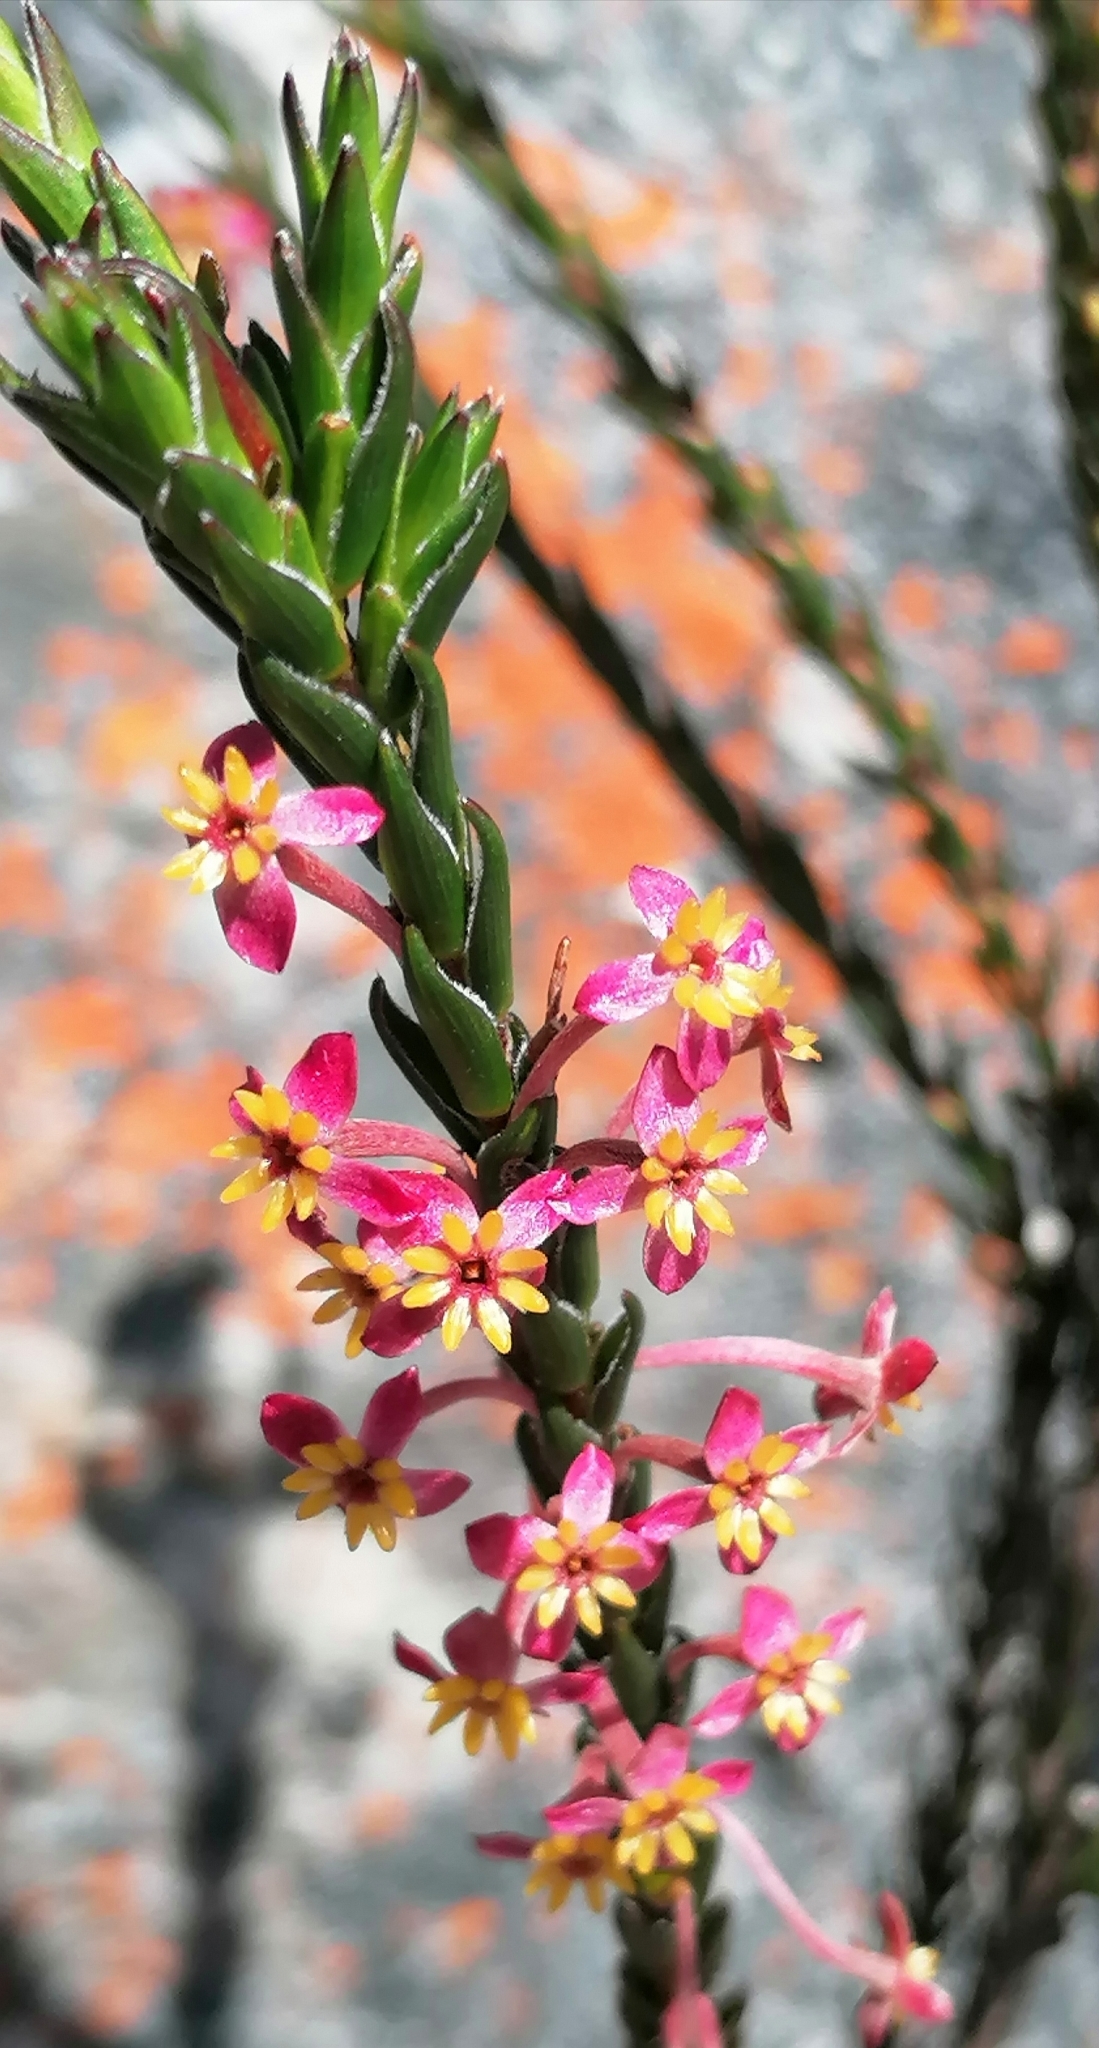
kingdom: Plantae
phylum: Tracheophyta
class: Magnoliopsida
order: Malvales
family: Thymelaeaceae
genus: Struthiola
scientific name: Struthiola ciliata
